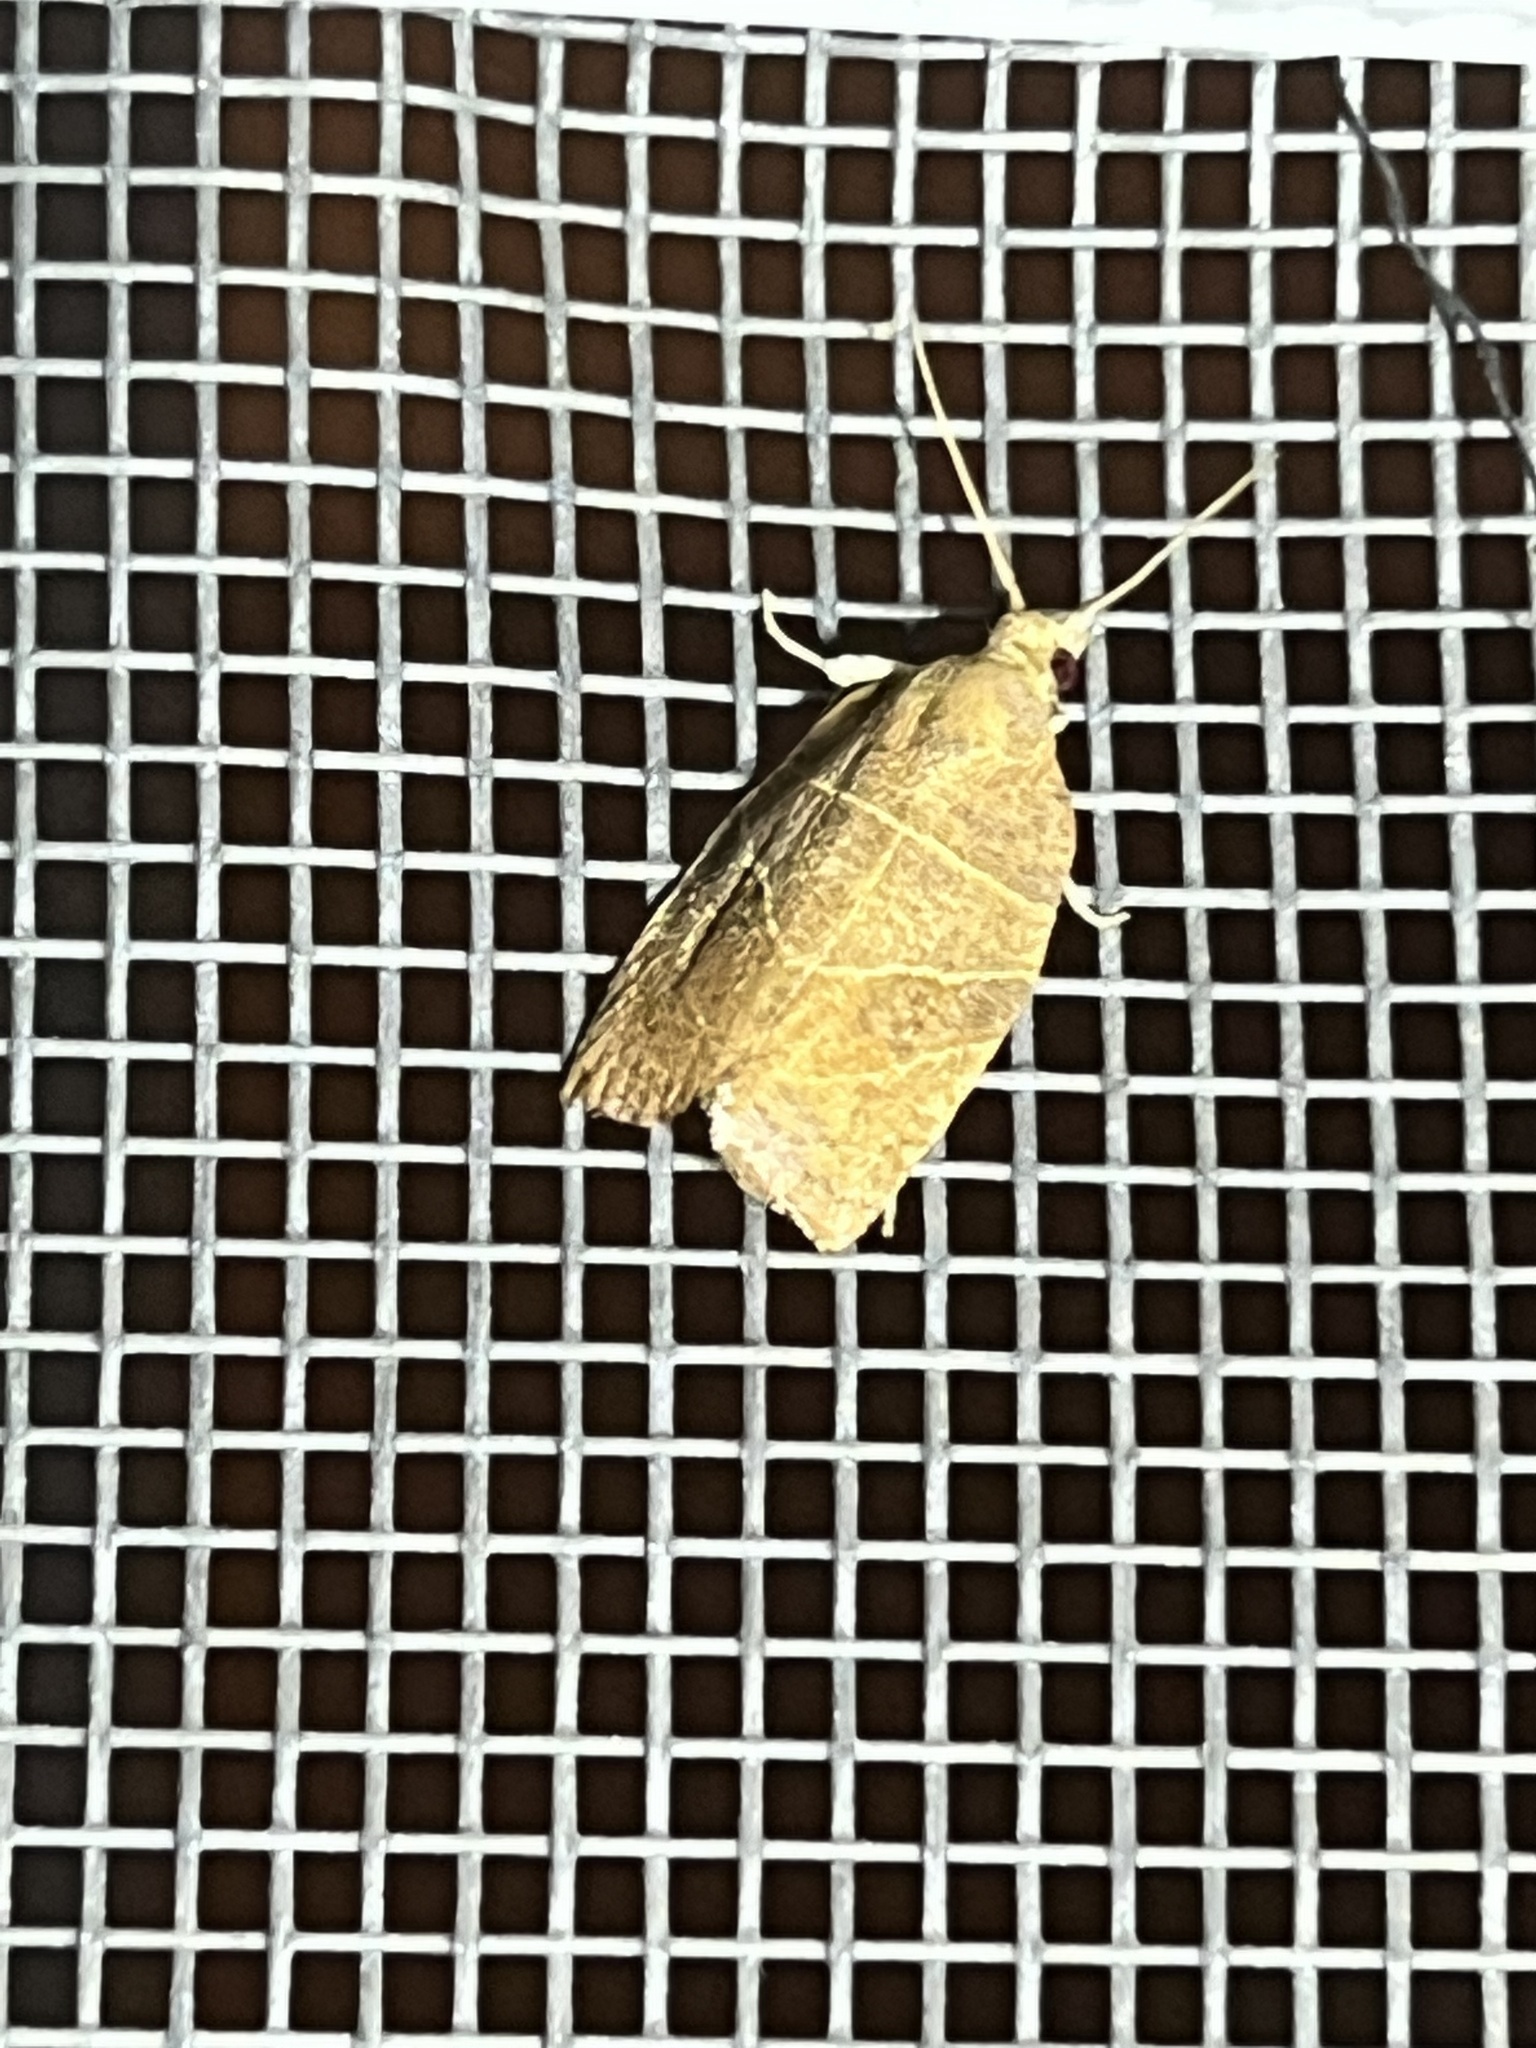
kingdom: Animalia
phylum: Arthropoda
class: Insecta
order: Lepidoptera
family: Tortricidae
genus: Pandemis
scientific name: Pandemis limitata
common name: Three-lined leafroller moth
